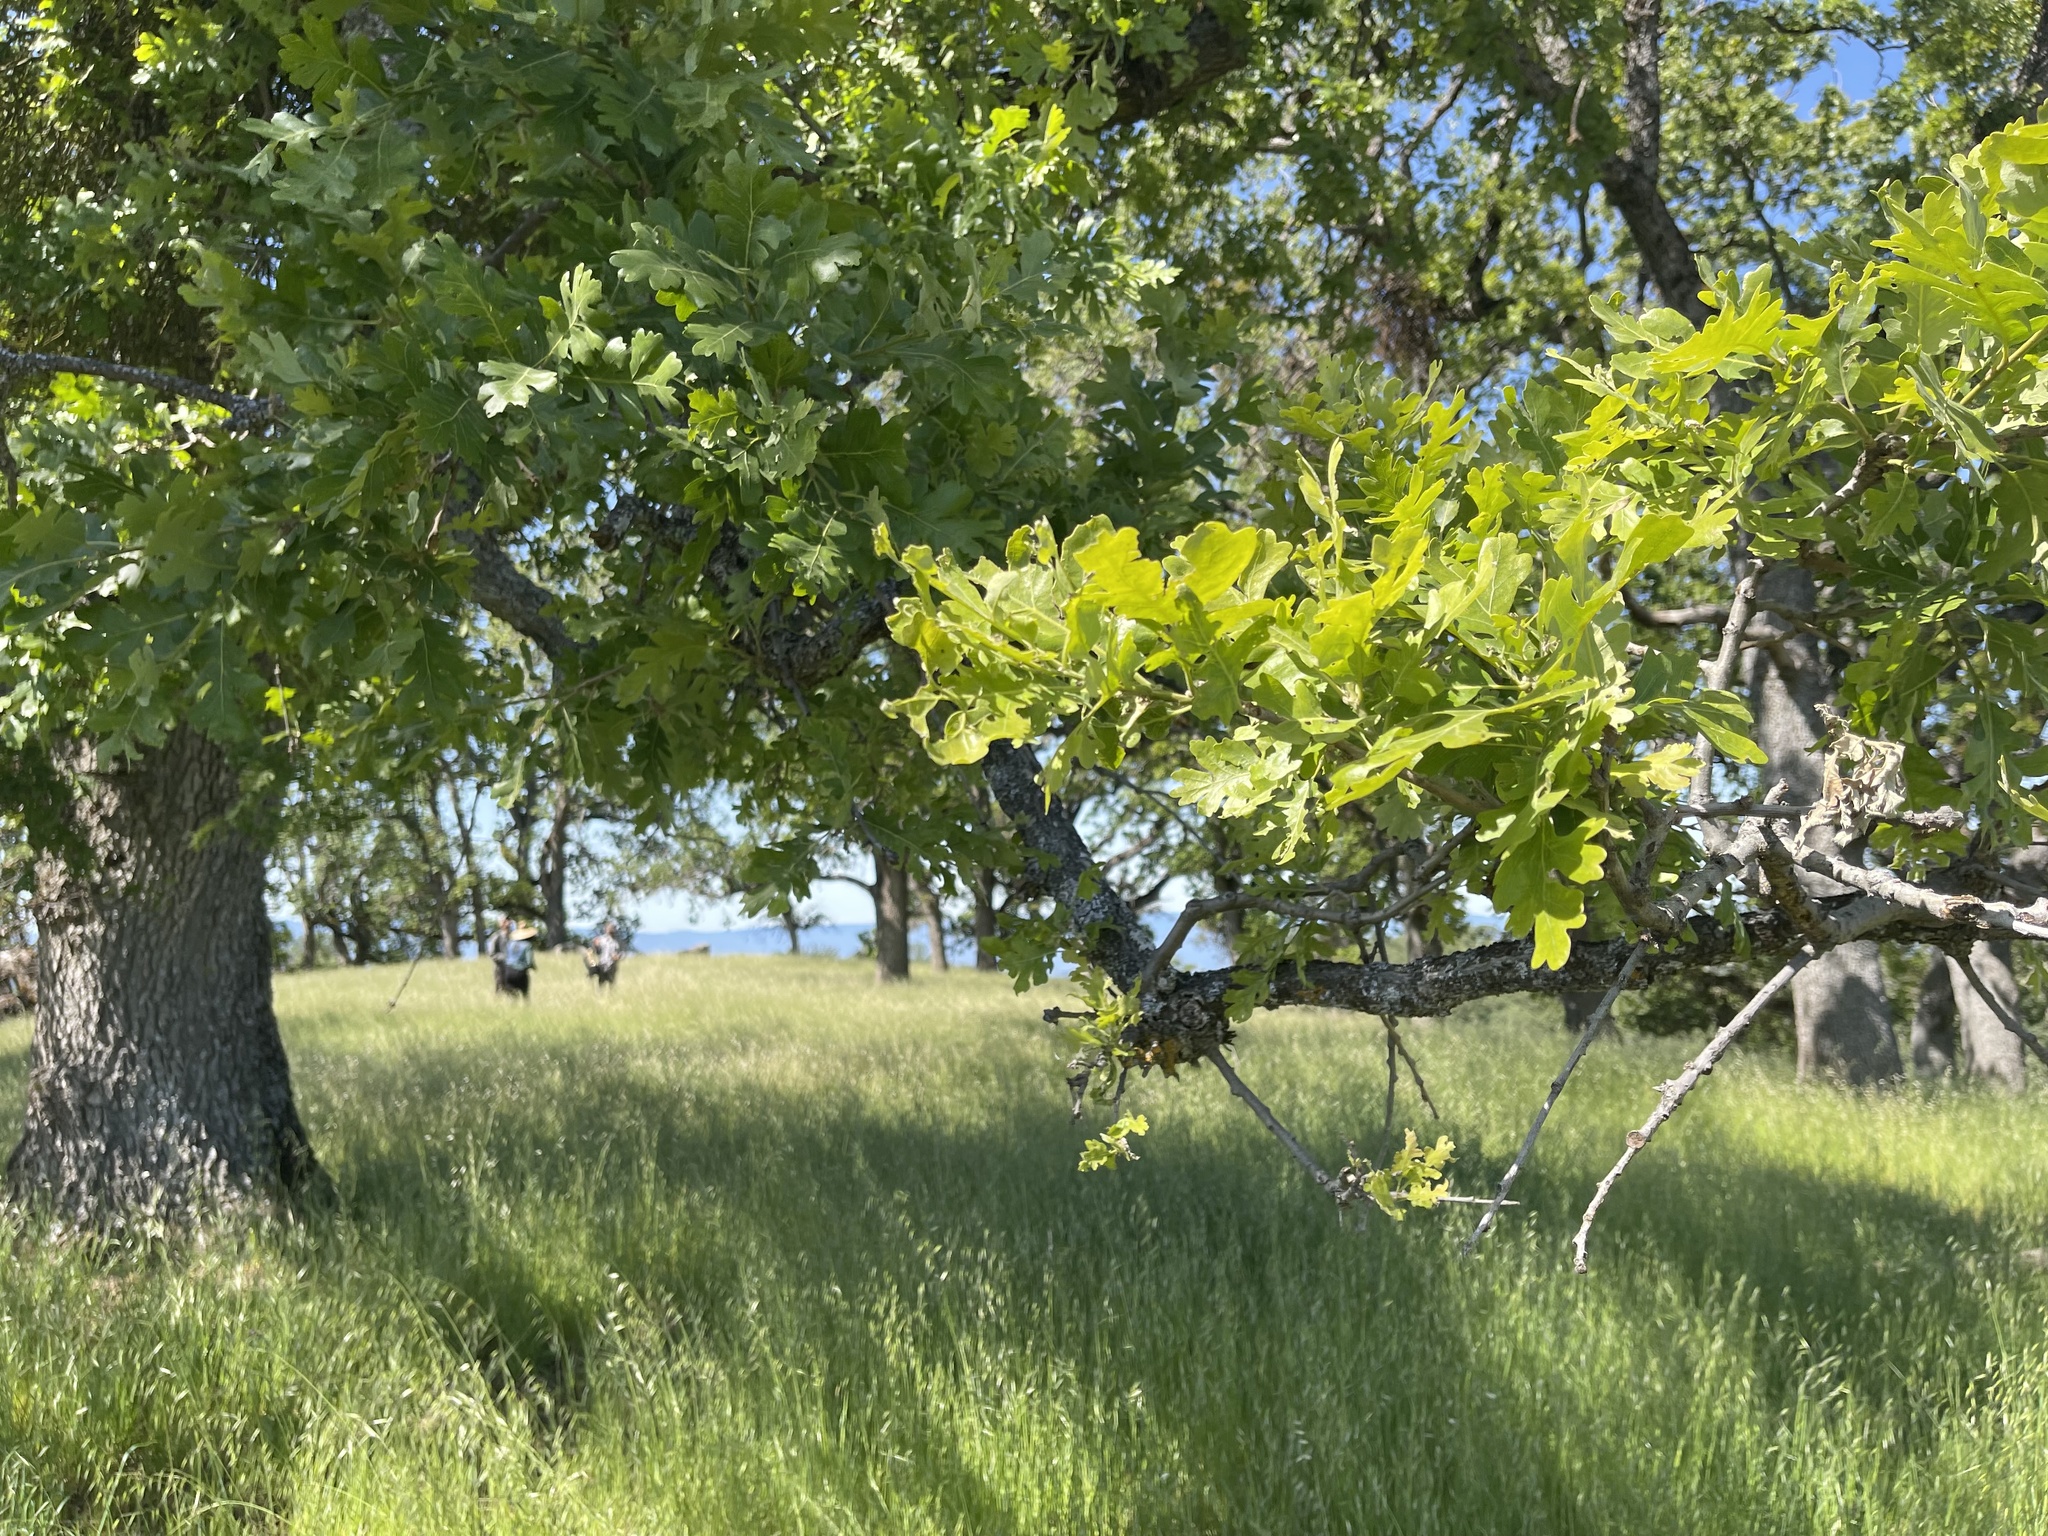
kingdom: Plantae
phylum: Tracheophyta
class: Magnoliopsida
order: Fagales
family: Fagaceae
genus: Quercus
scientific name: Quercus lobata
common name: Valley oak
